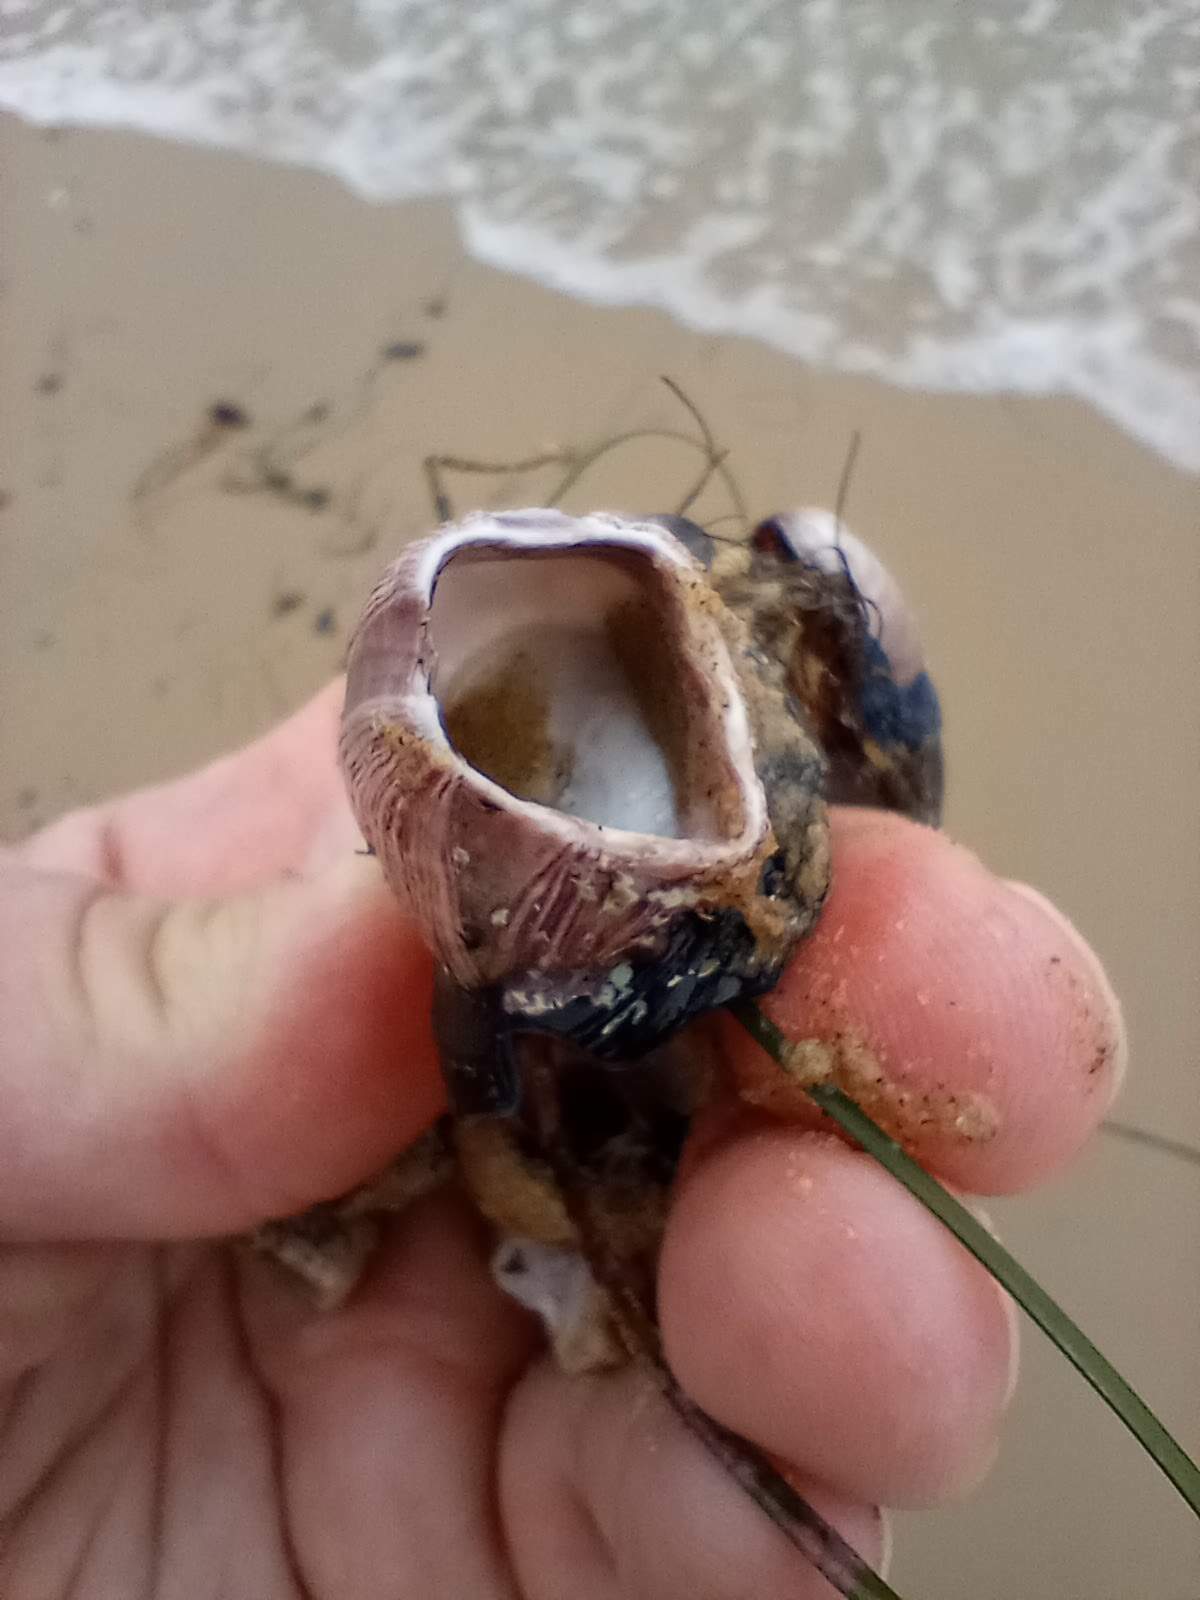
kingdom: Animalia
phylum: Arthropoda
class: Maxillopoda
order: Sessilia
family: Balanidae
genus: Megabalanus
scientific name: Megabalanus californicus
